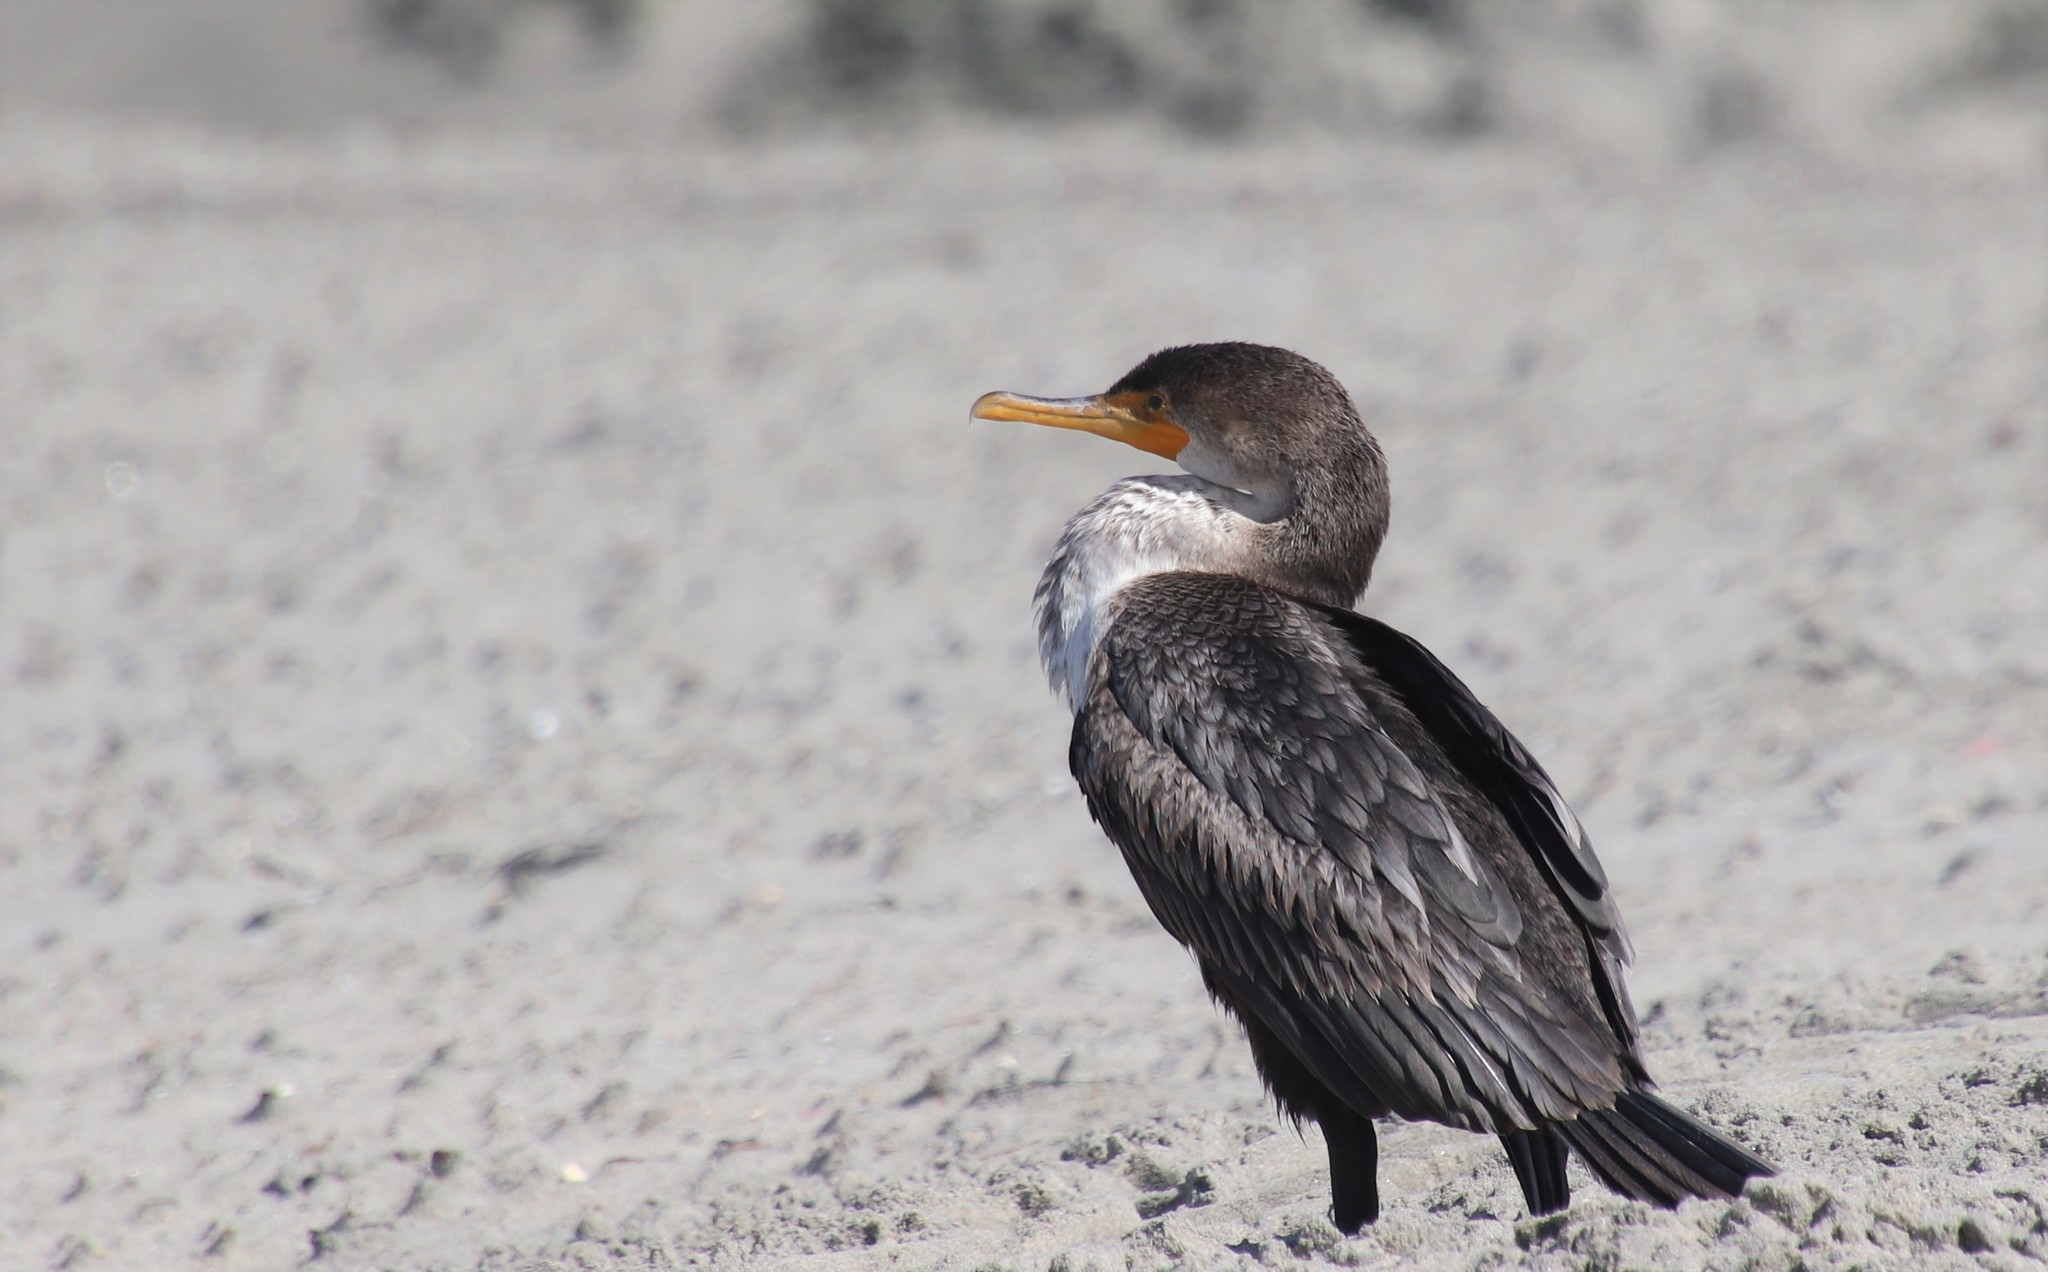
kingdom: Animalia
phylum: Chordata
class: Aves
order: Suliformes
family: Phalacrocoracidae
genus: Phalacrocorax
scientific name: Phalacrocorax auritus
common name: Double-crested cormorant
